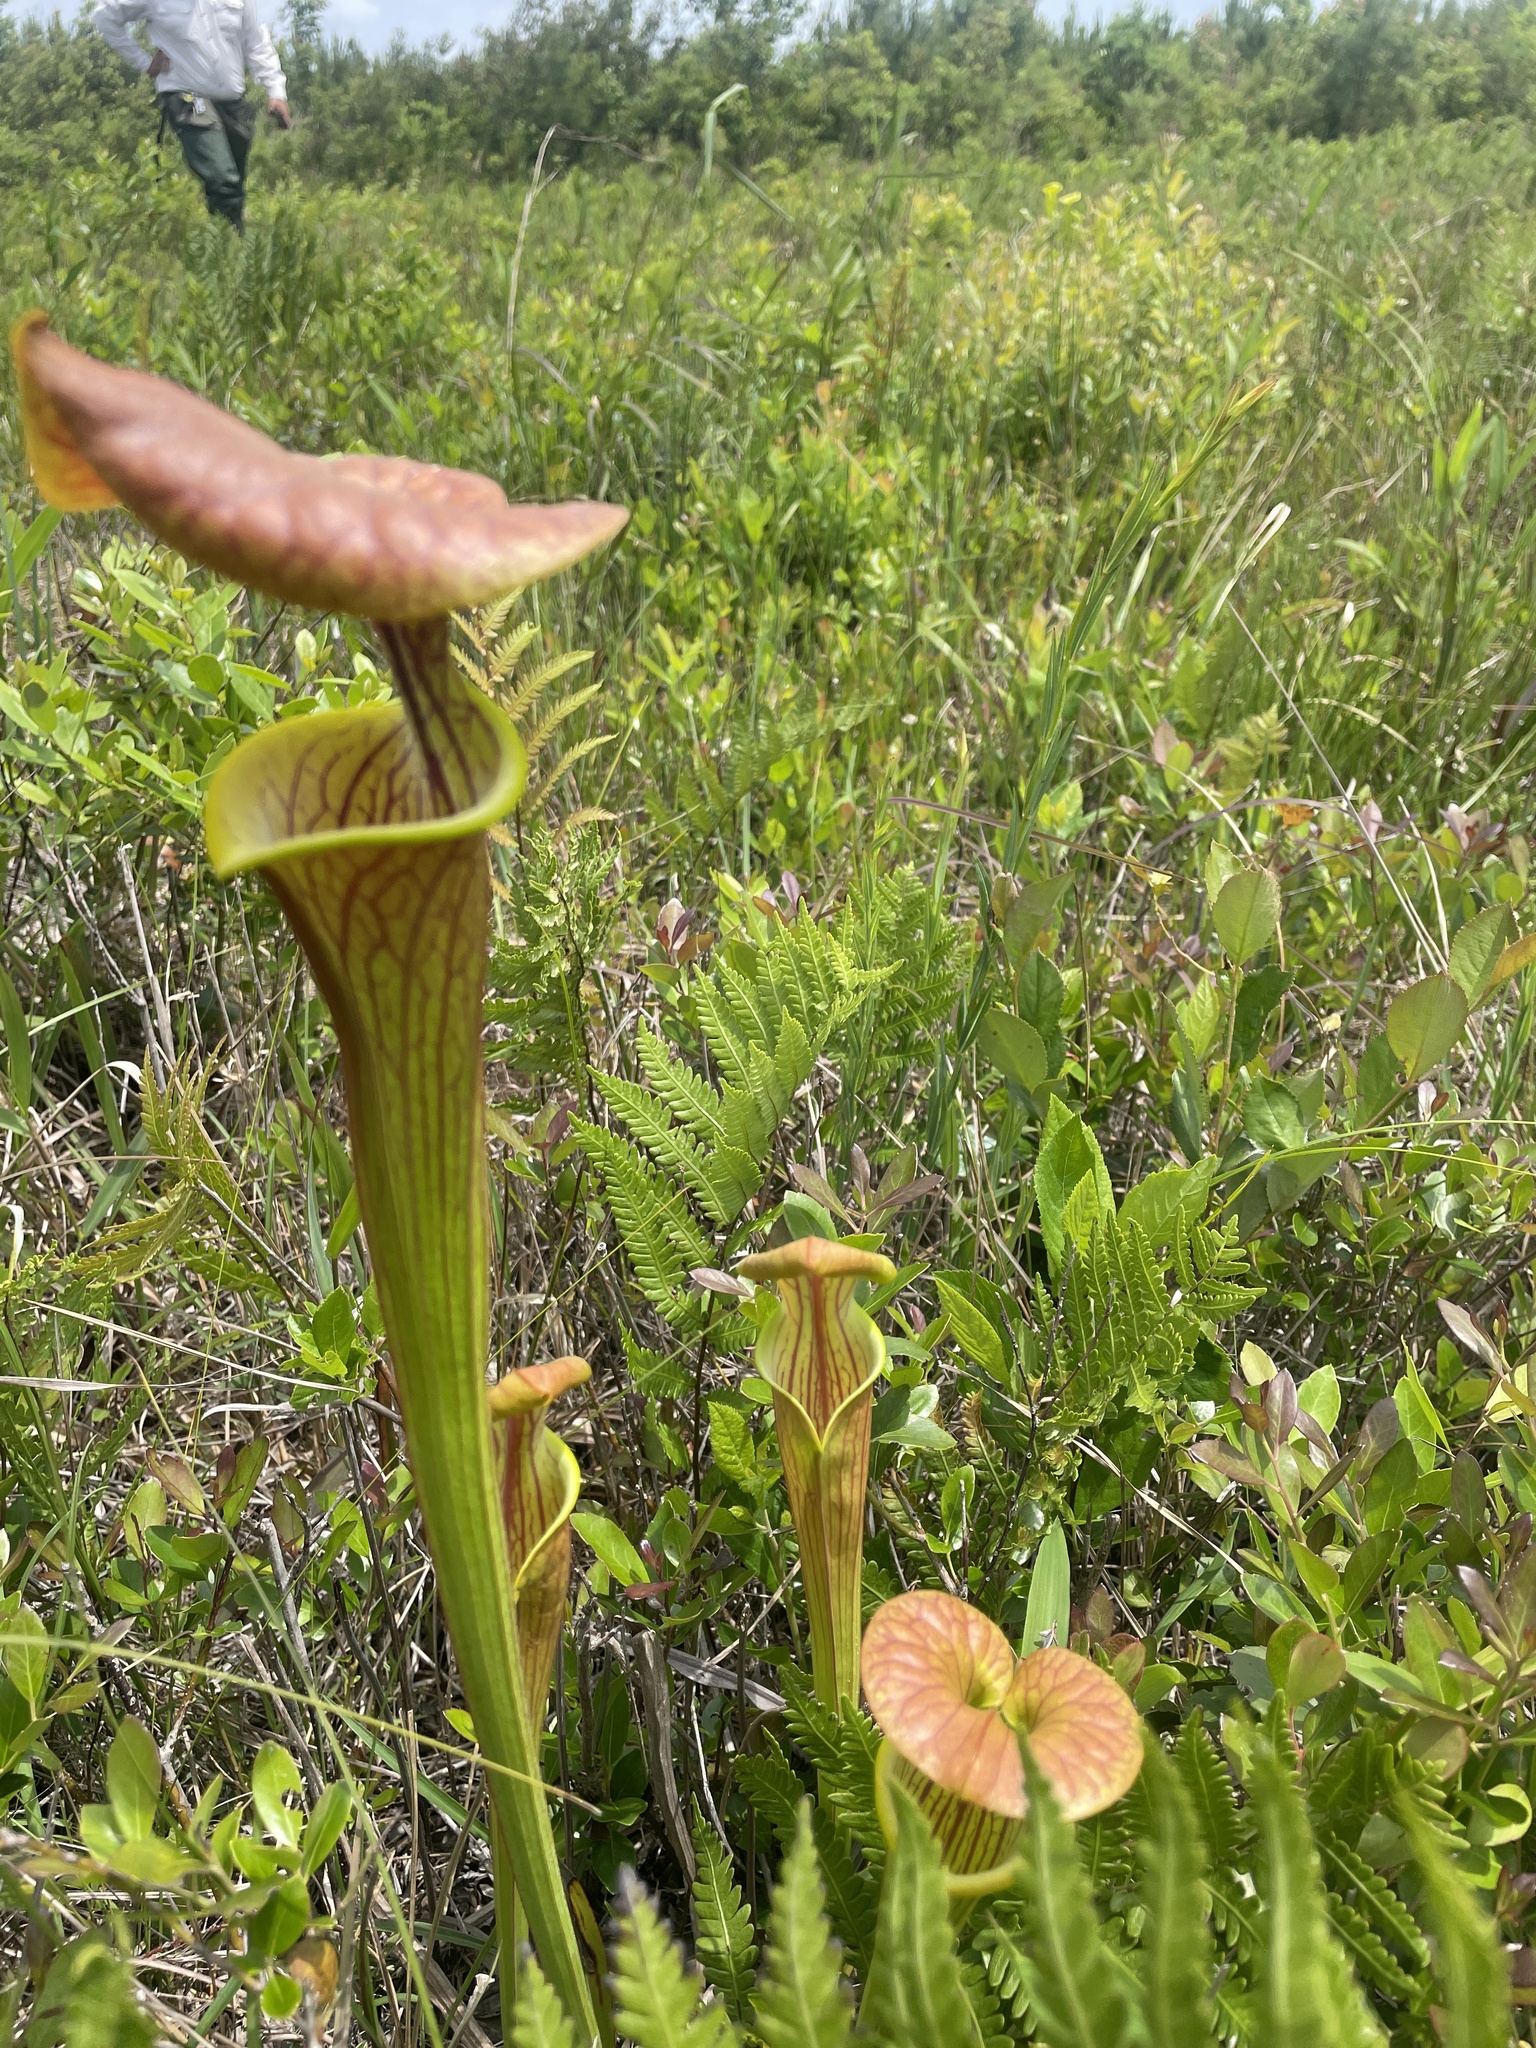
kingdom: Plantae
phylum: Tracheophyta
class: Magnoliopsida
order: Ericales
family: Sarraceniaceae
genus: Sarracenia
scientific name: Sarracenia flava
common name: Trumpets
